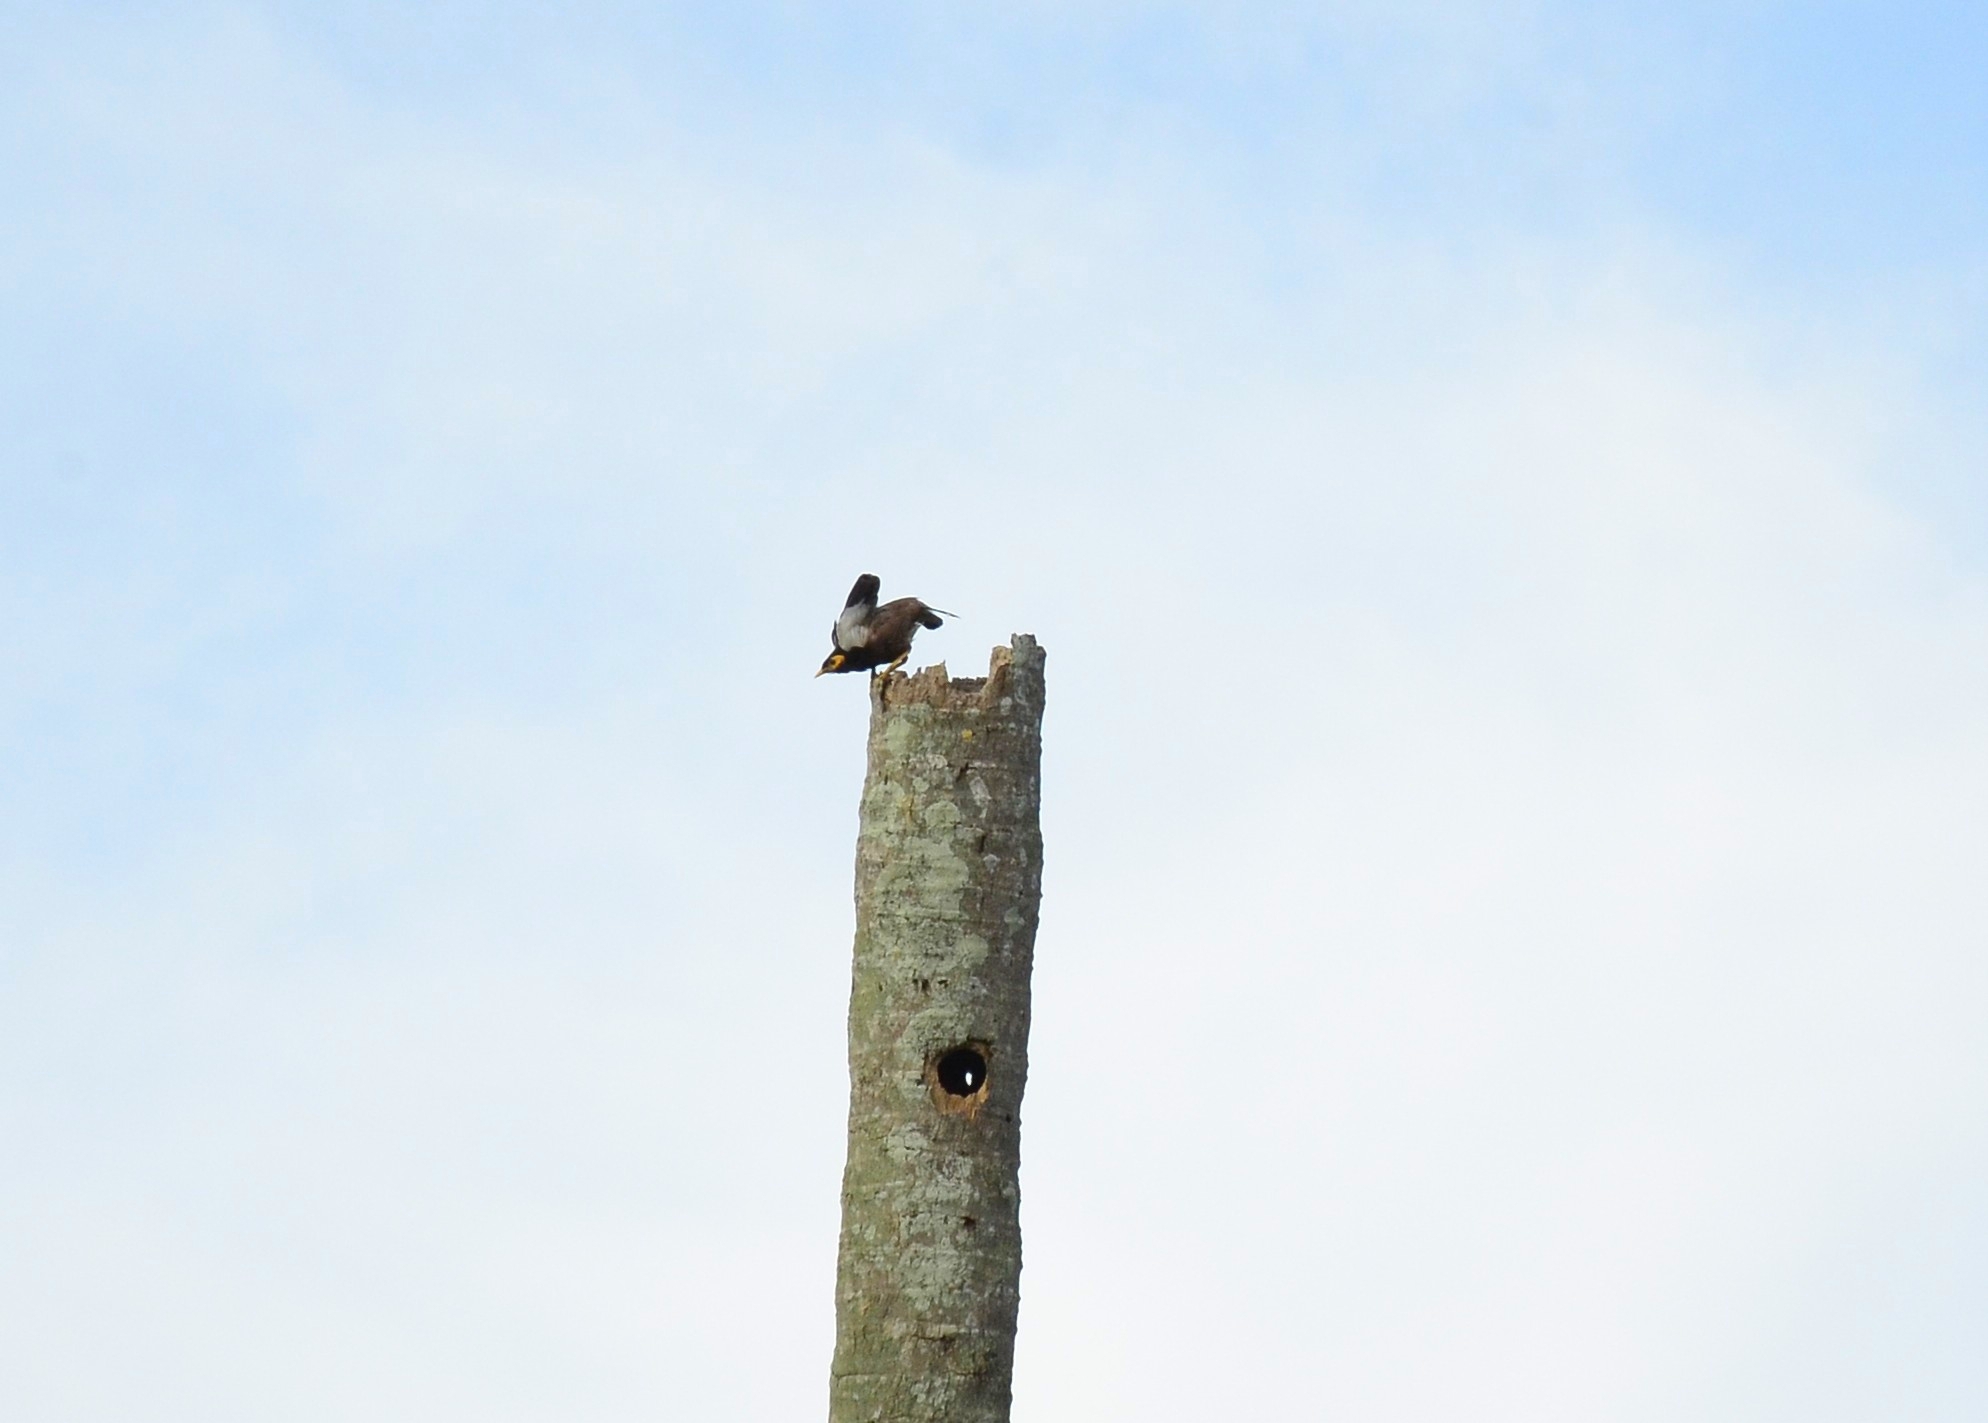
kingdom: Animalia
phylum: Chordata
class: Aves
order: Passeriformes
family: Sturnidae
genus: Acridotheres
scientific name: Acridotheres tristis
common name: Common myna
